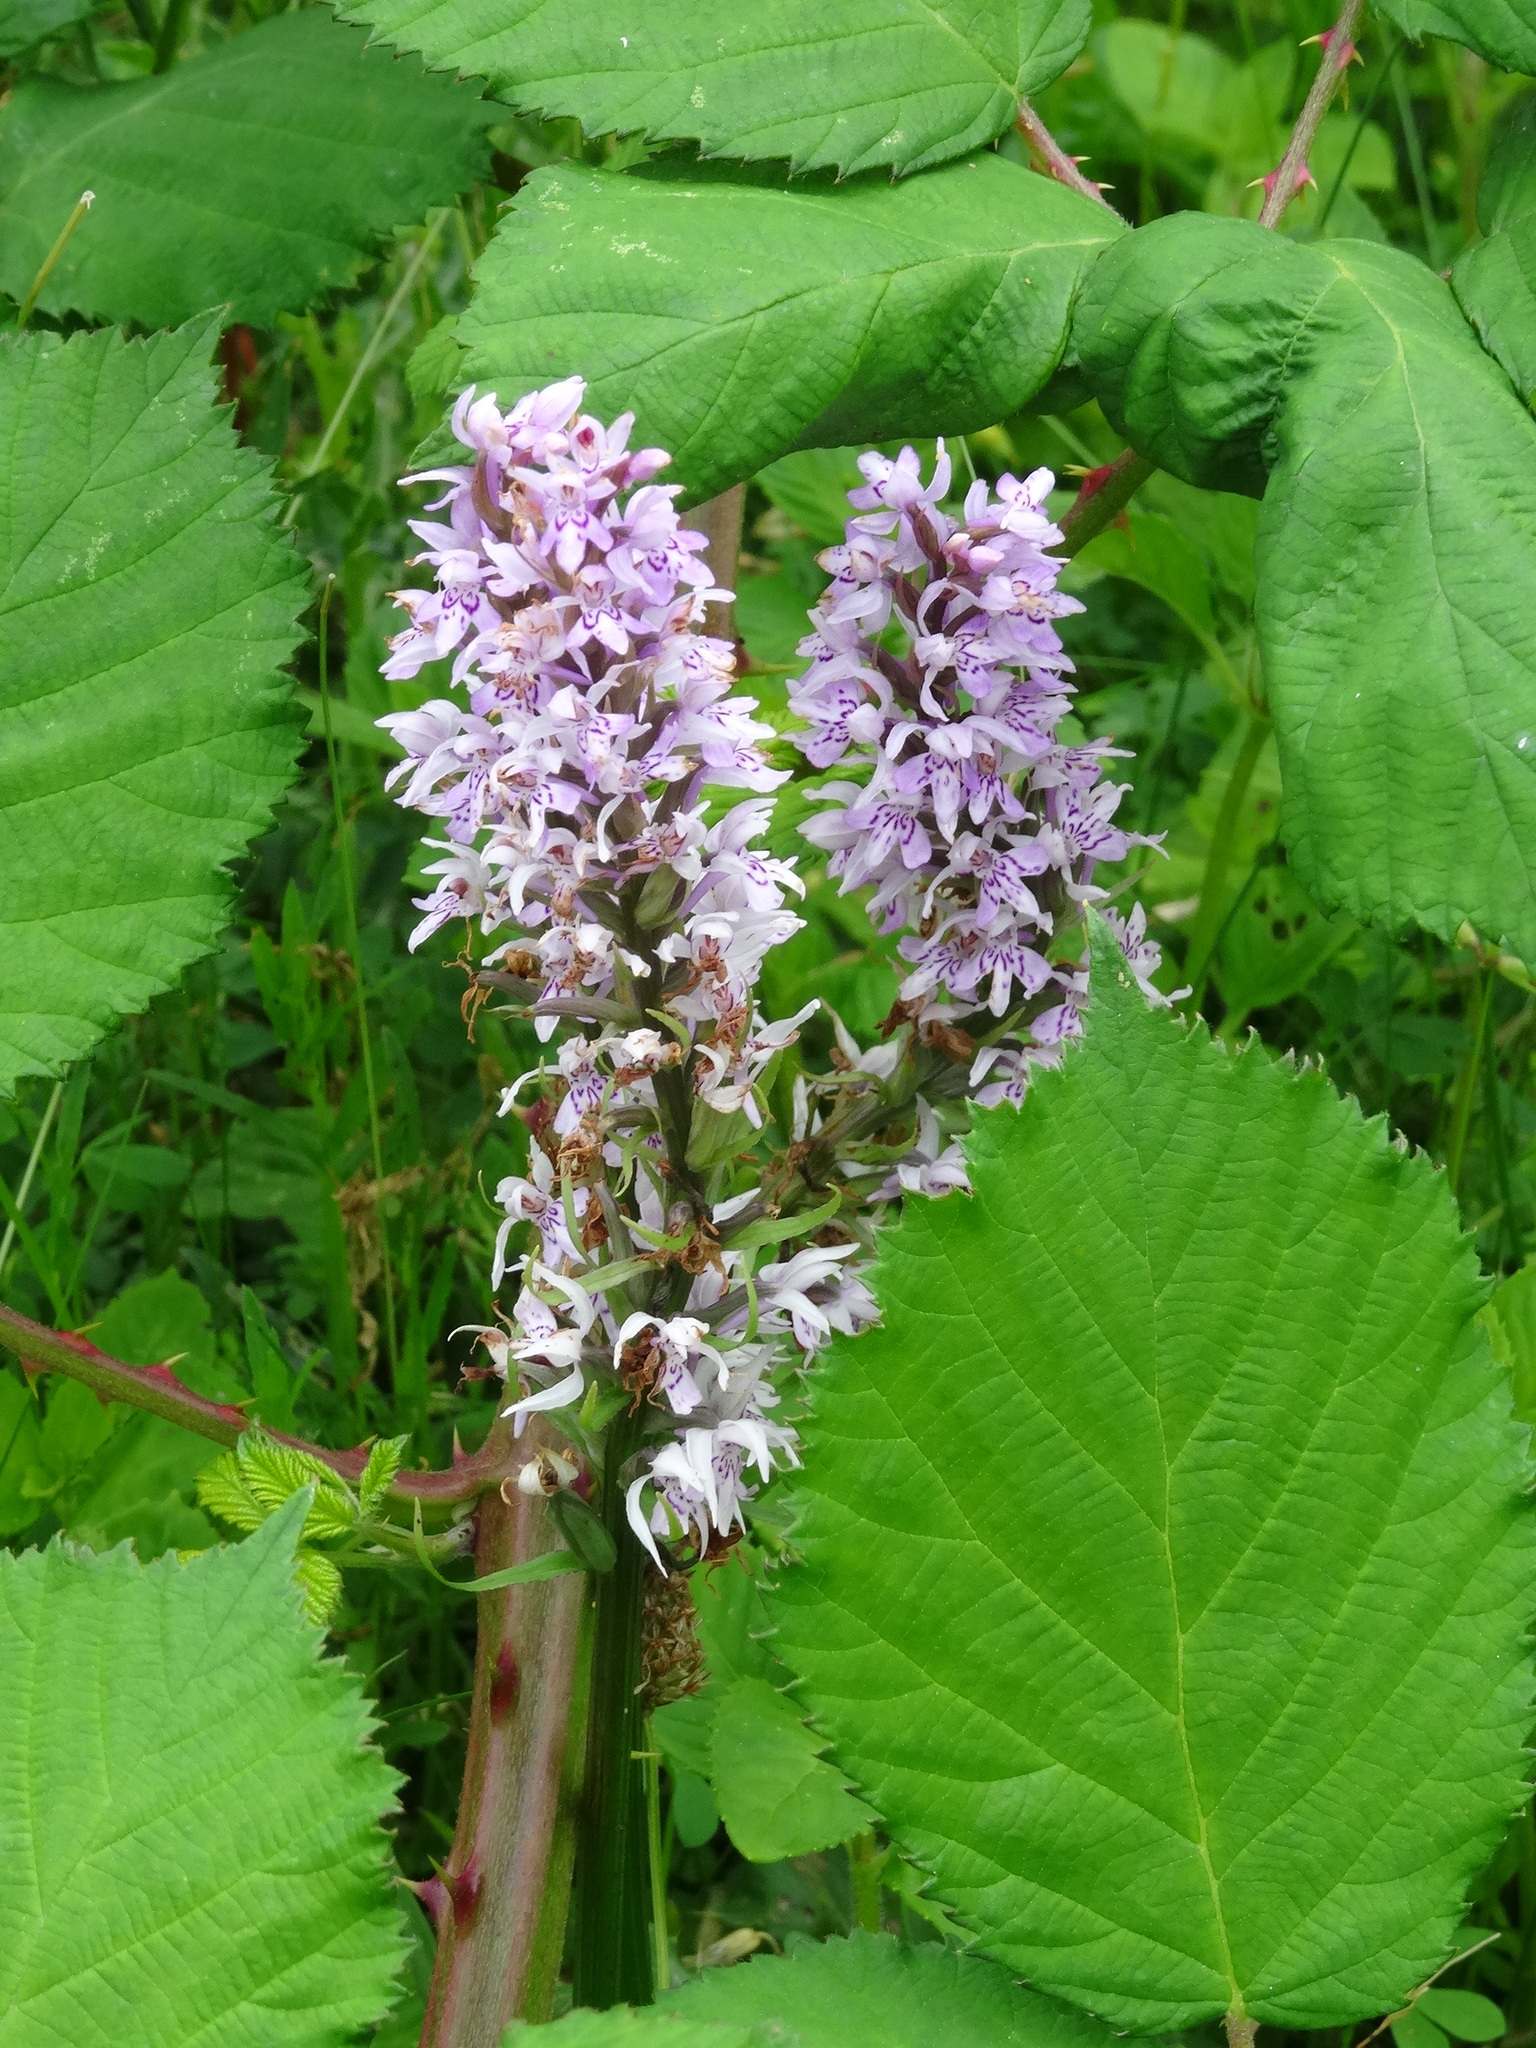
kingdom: Plantae
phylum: Tracheophyta
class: Liliopsida
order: Asparagales
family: Orchidaceae
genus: Dactylorhiza
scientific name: Dactylorhiza maculata
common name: Heath spotted-orchid
